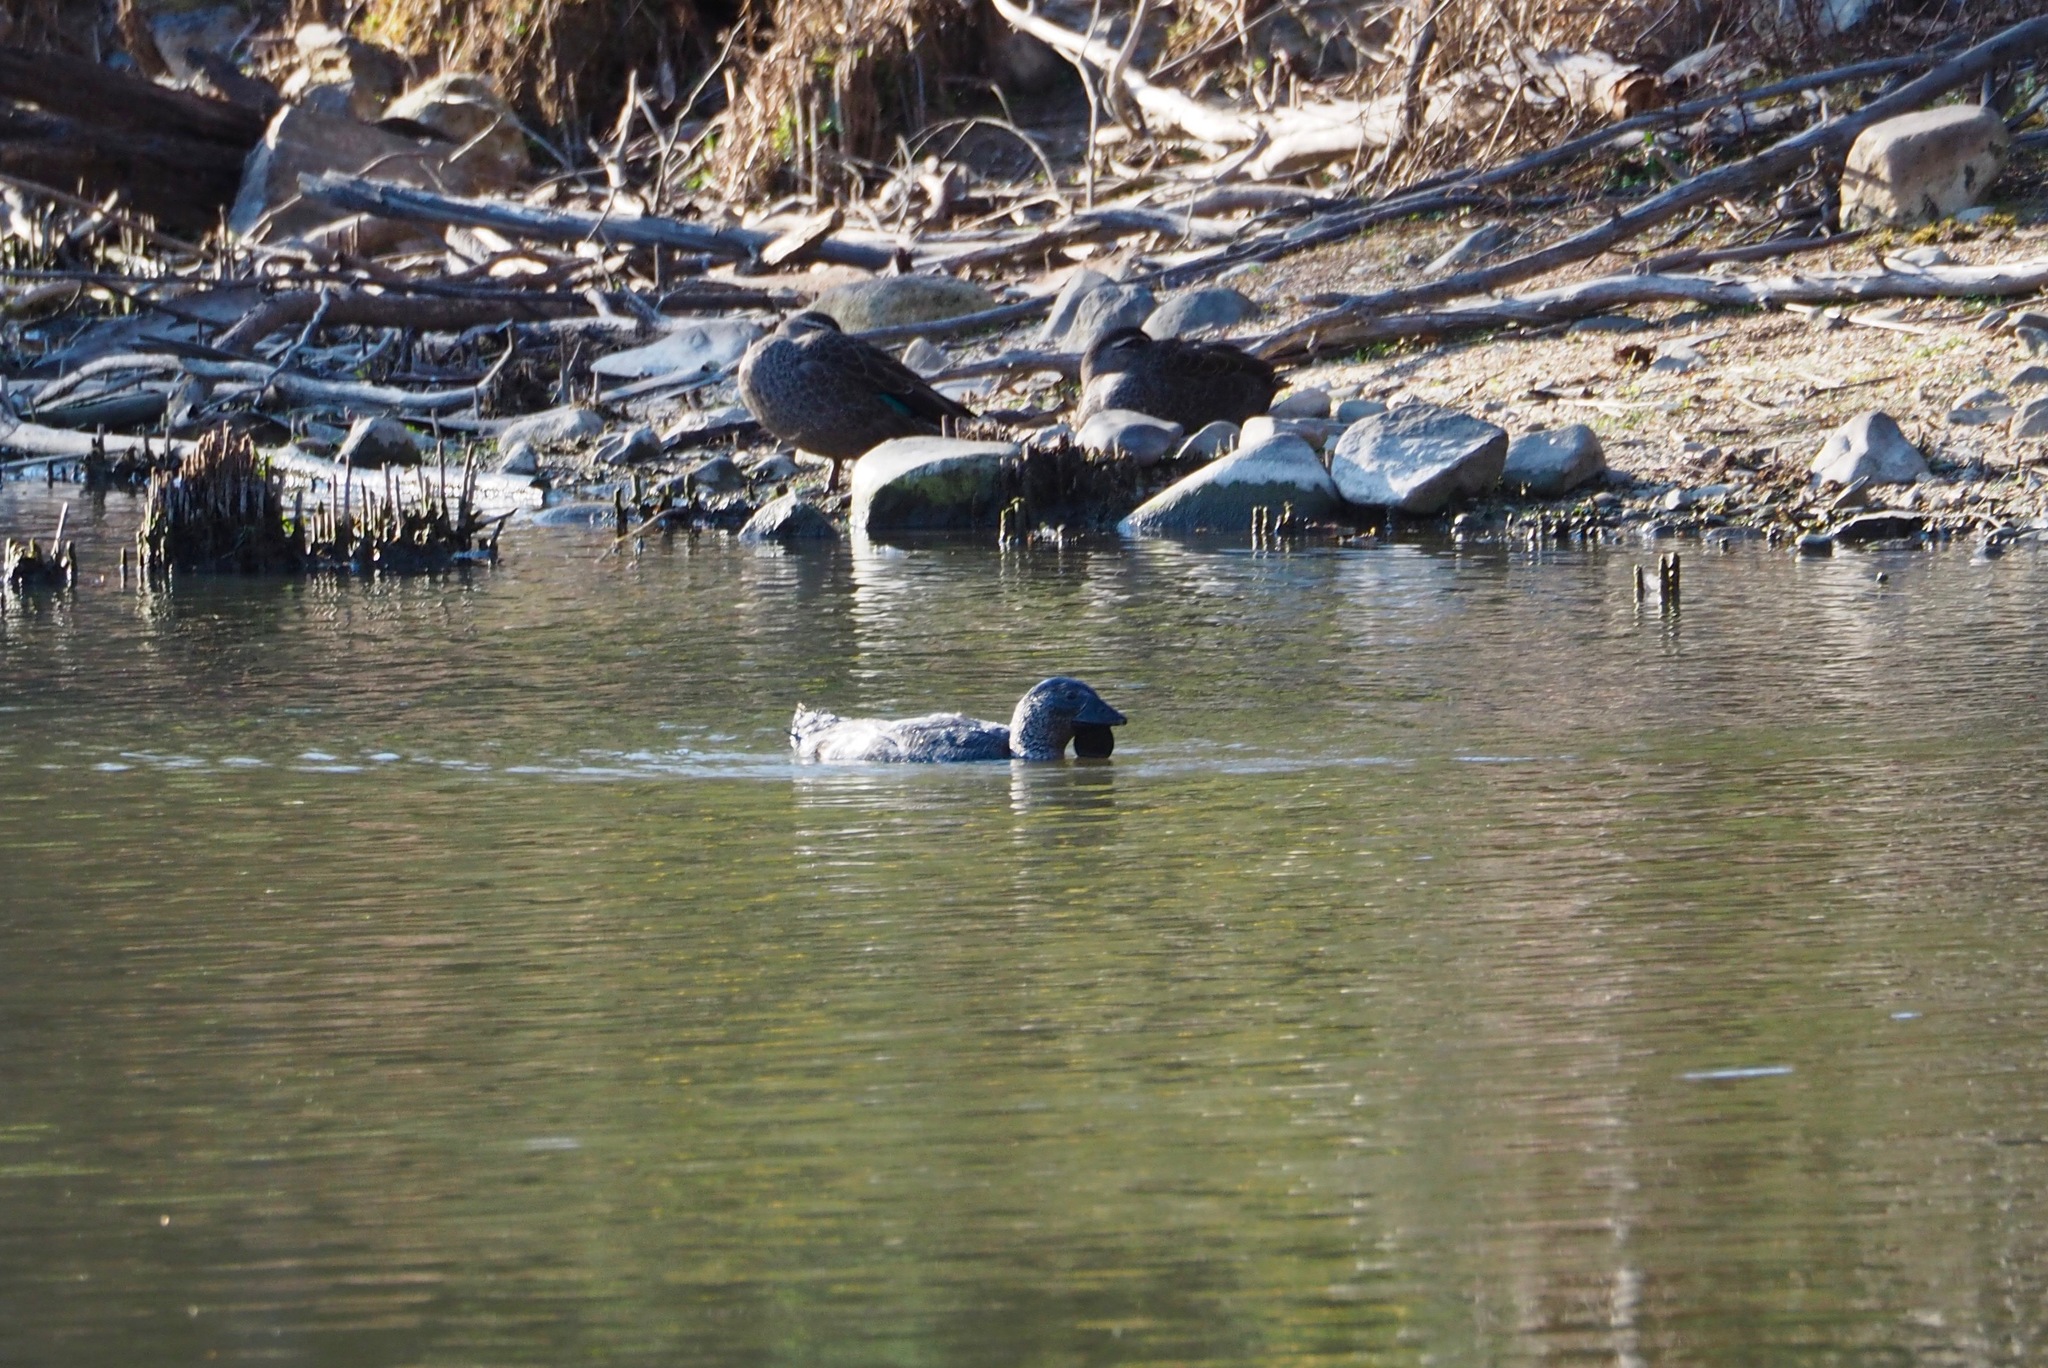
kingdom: Animalia
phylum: Chordata
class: Aves
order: Anseriformes
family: Anatidae
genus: Biziura
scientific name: Biziura lobata
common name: Musk duck
